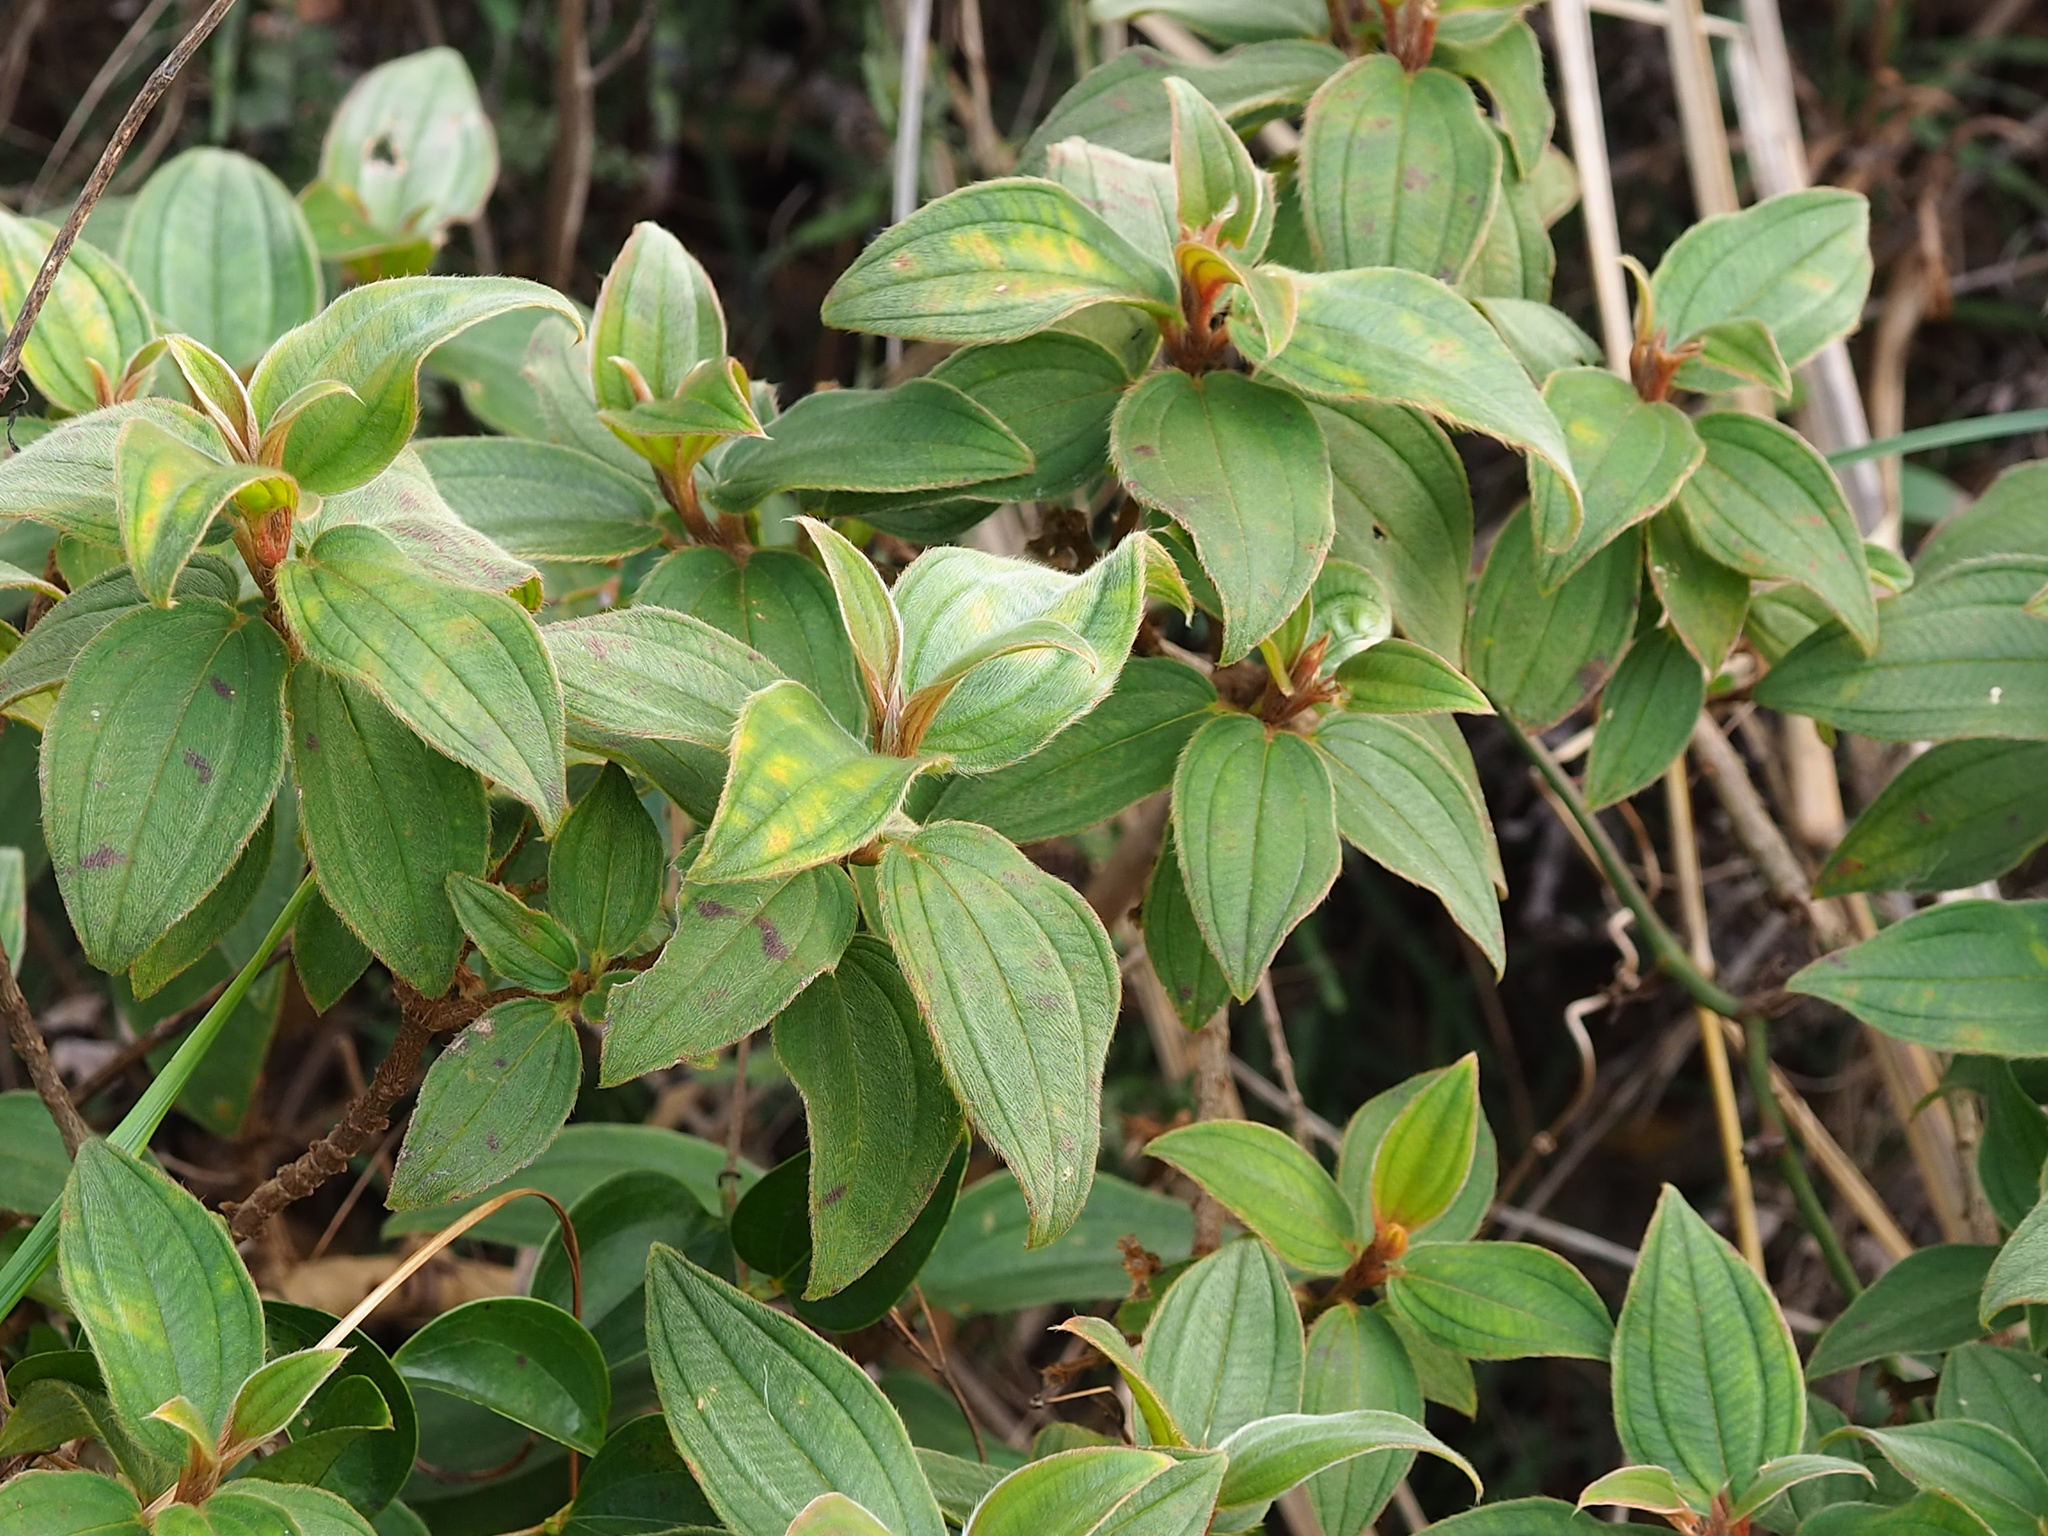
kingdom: Plantae
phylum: Tracheophyta
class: Magnoliopsida
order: Myrtales
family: Melastomataceae
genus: Melastoma
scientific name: Melastoma malabathricum
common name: Indian-rhododendron
